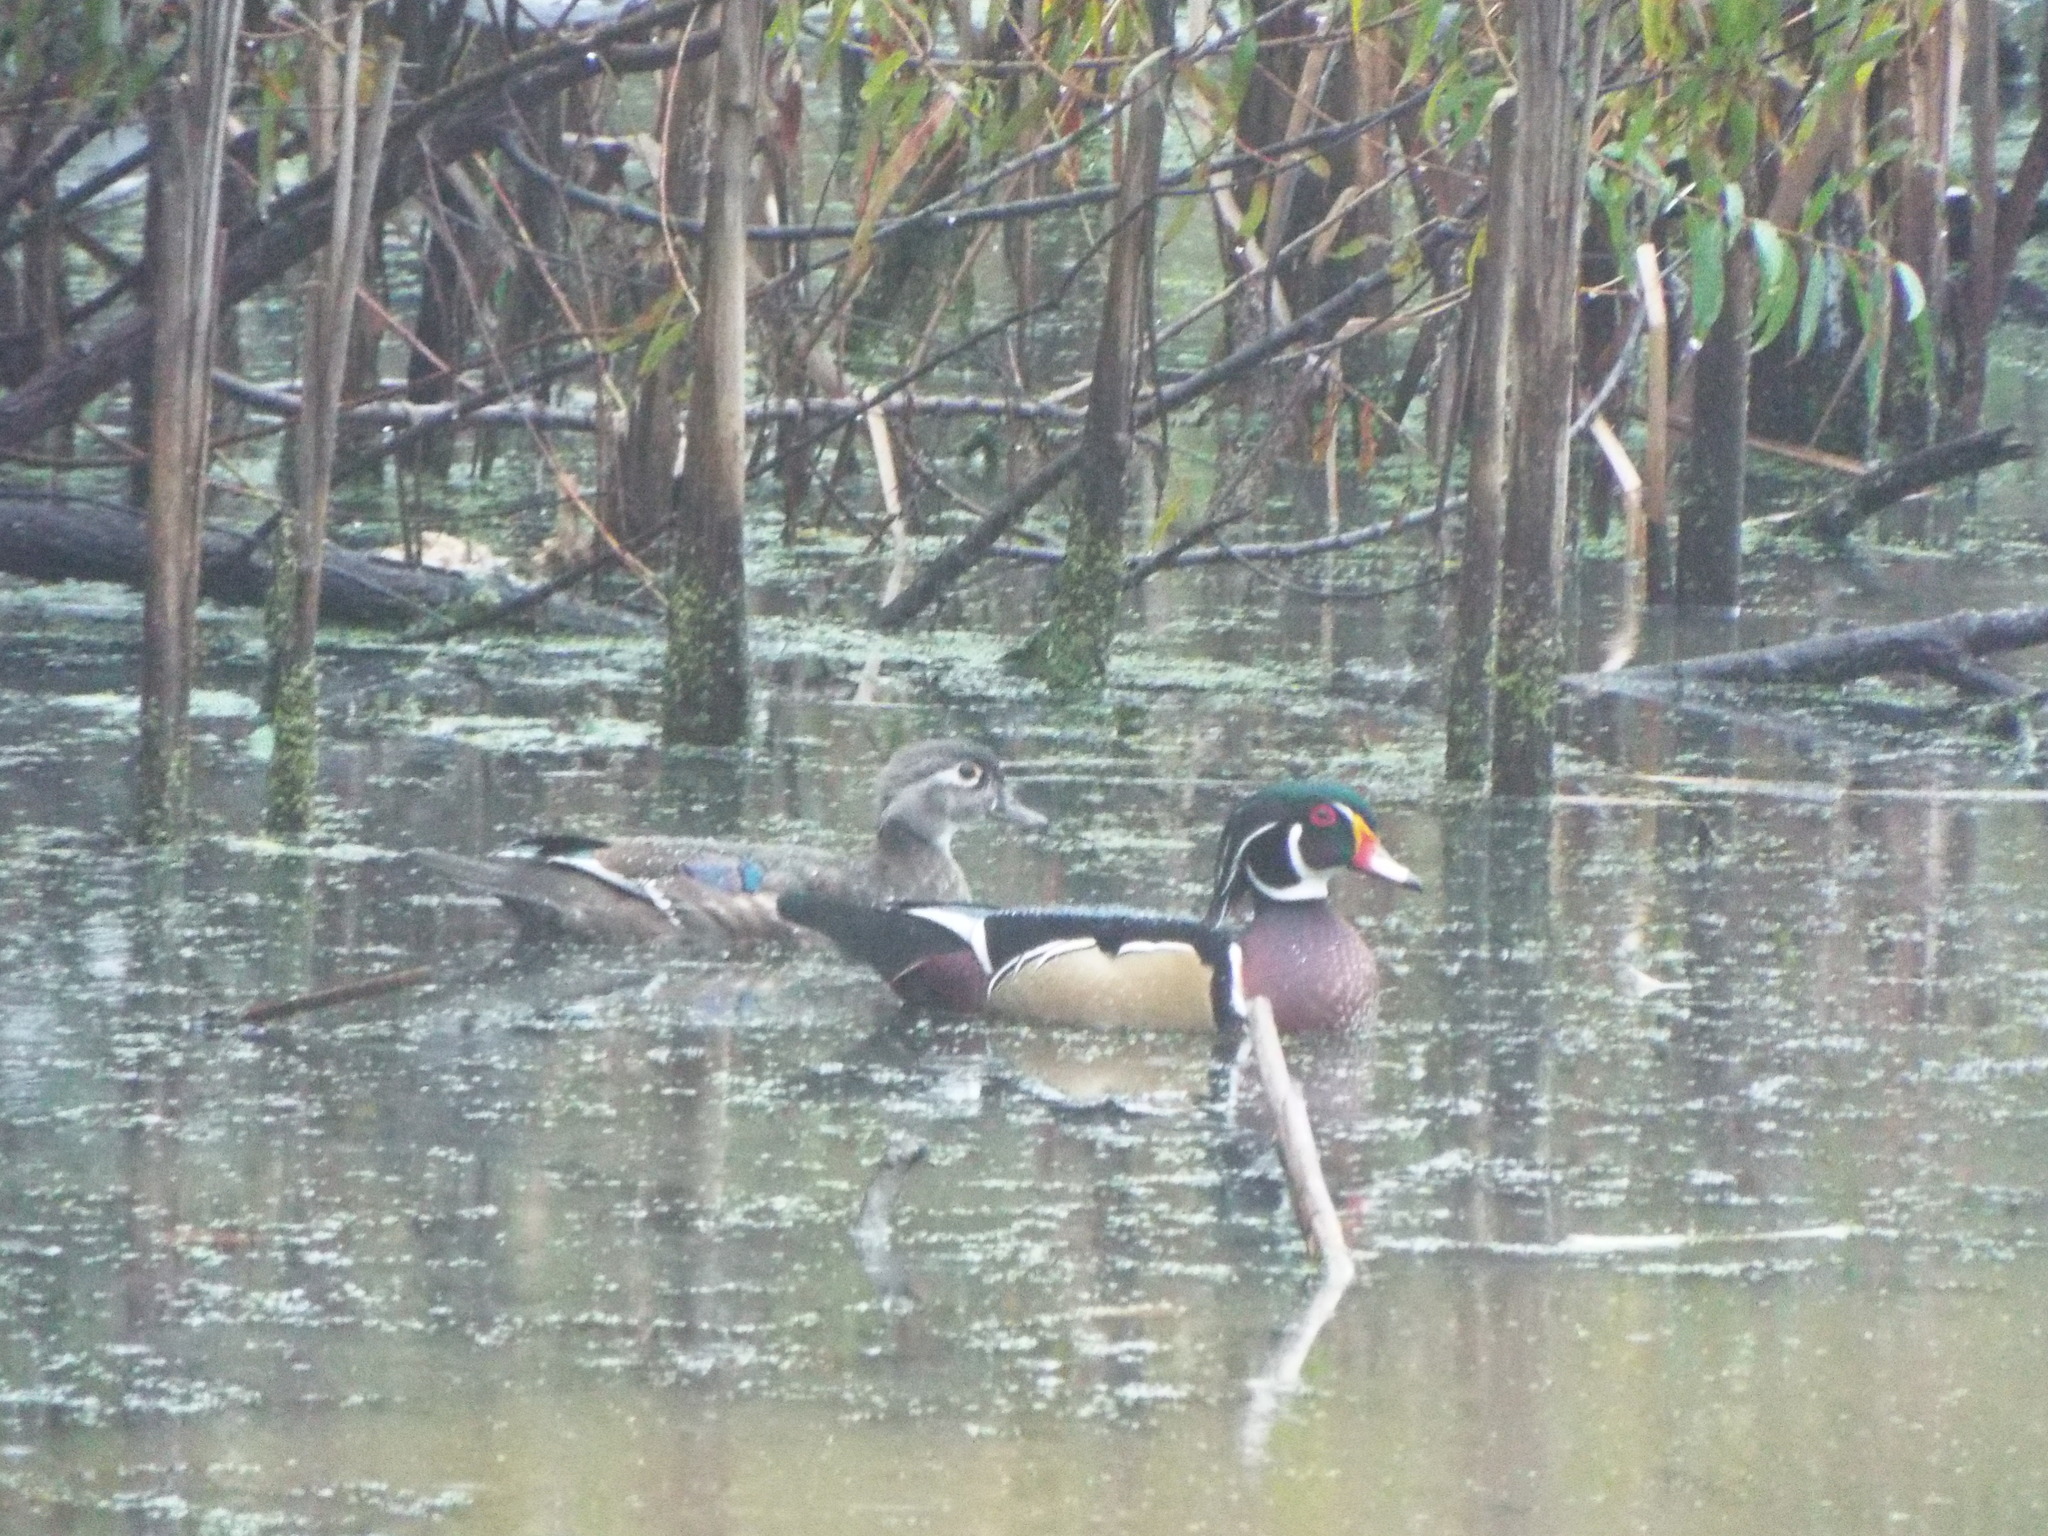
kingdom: Animalia
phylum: Chordata
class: Aves
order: Anseriformes
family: Anatidae
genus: Aix
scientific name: Aix sponsa
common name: Wood duck
